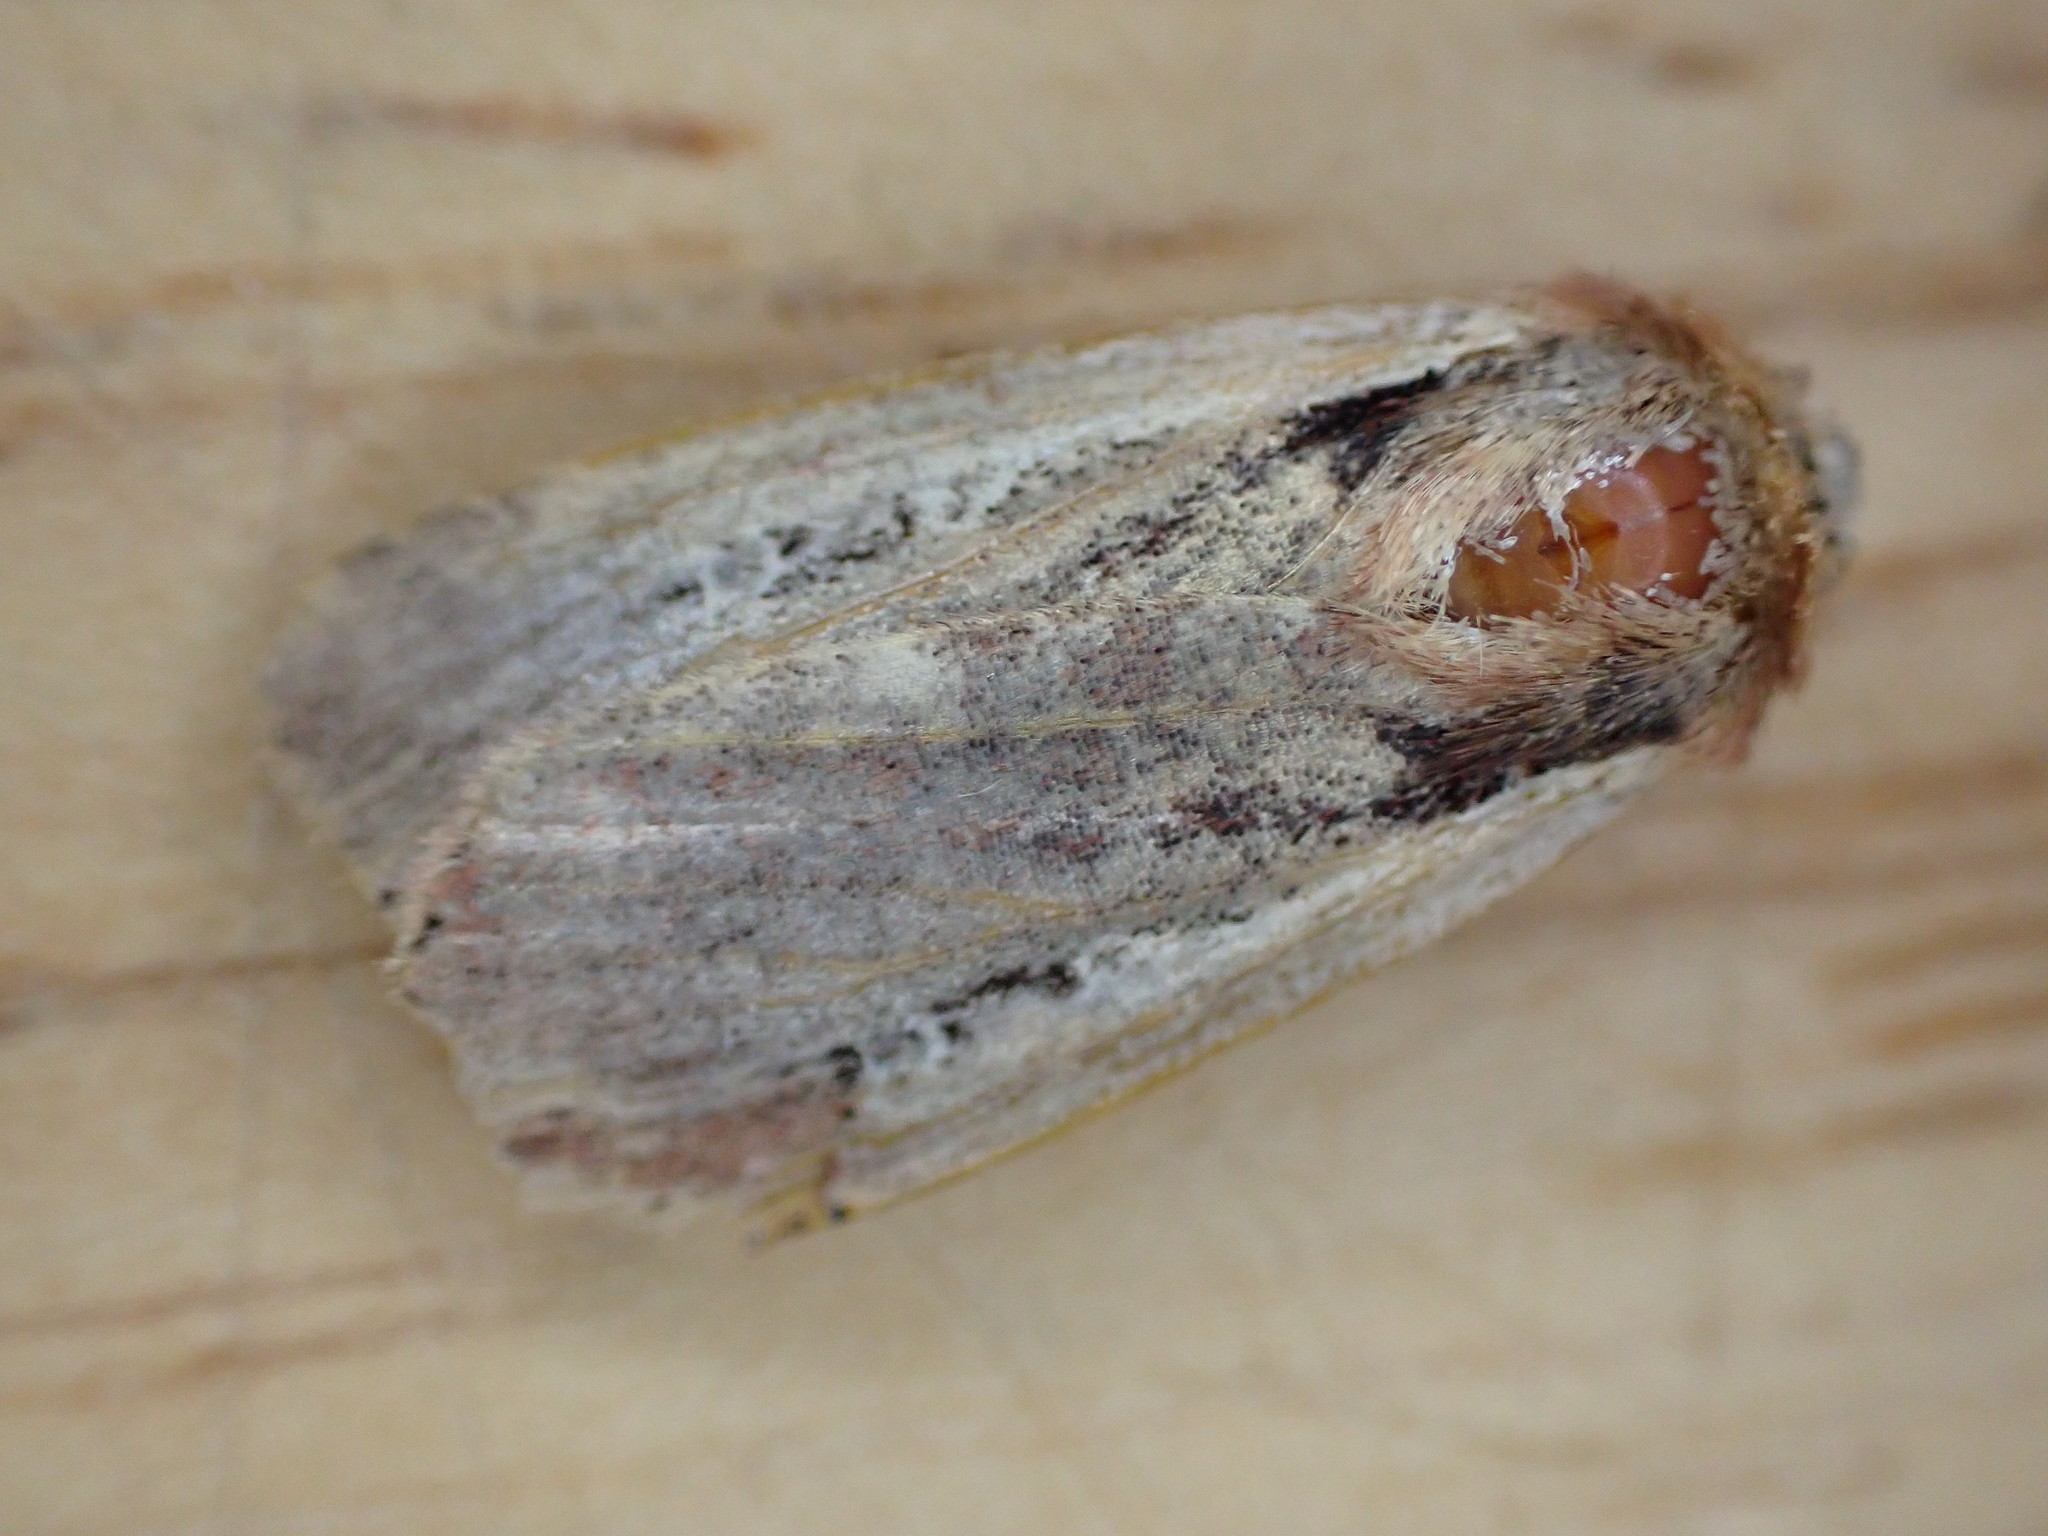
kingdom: Animalia
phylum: Arthropoda
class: Insecta
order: Lepidoptera
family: Noctuidae
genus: Ochropleura
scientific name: Ochropleura plecta
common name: Flame shoulder
